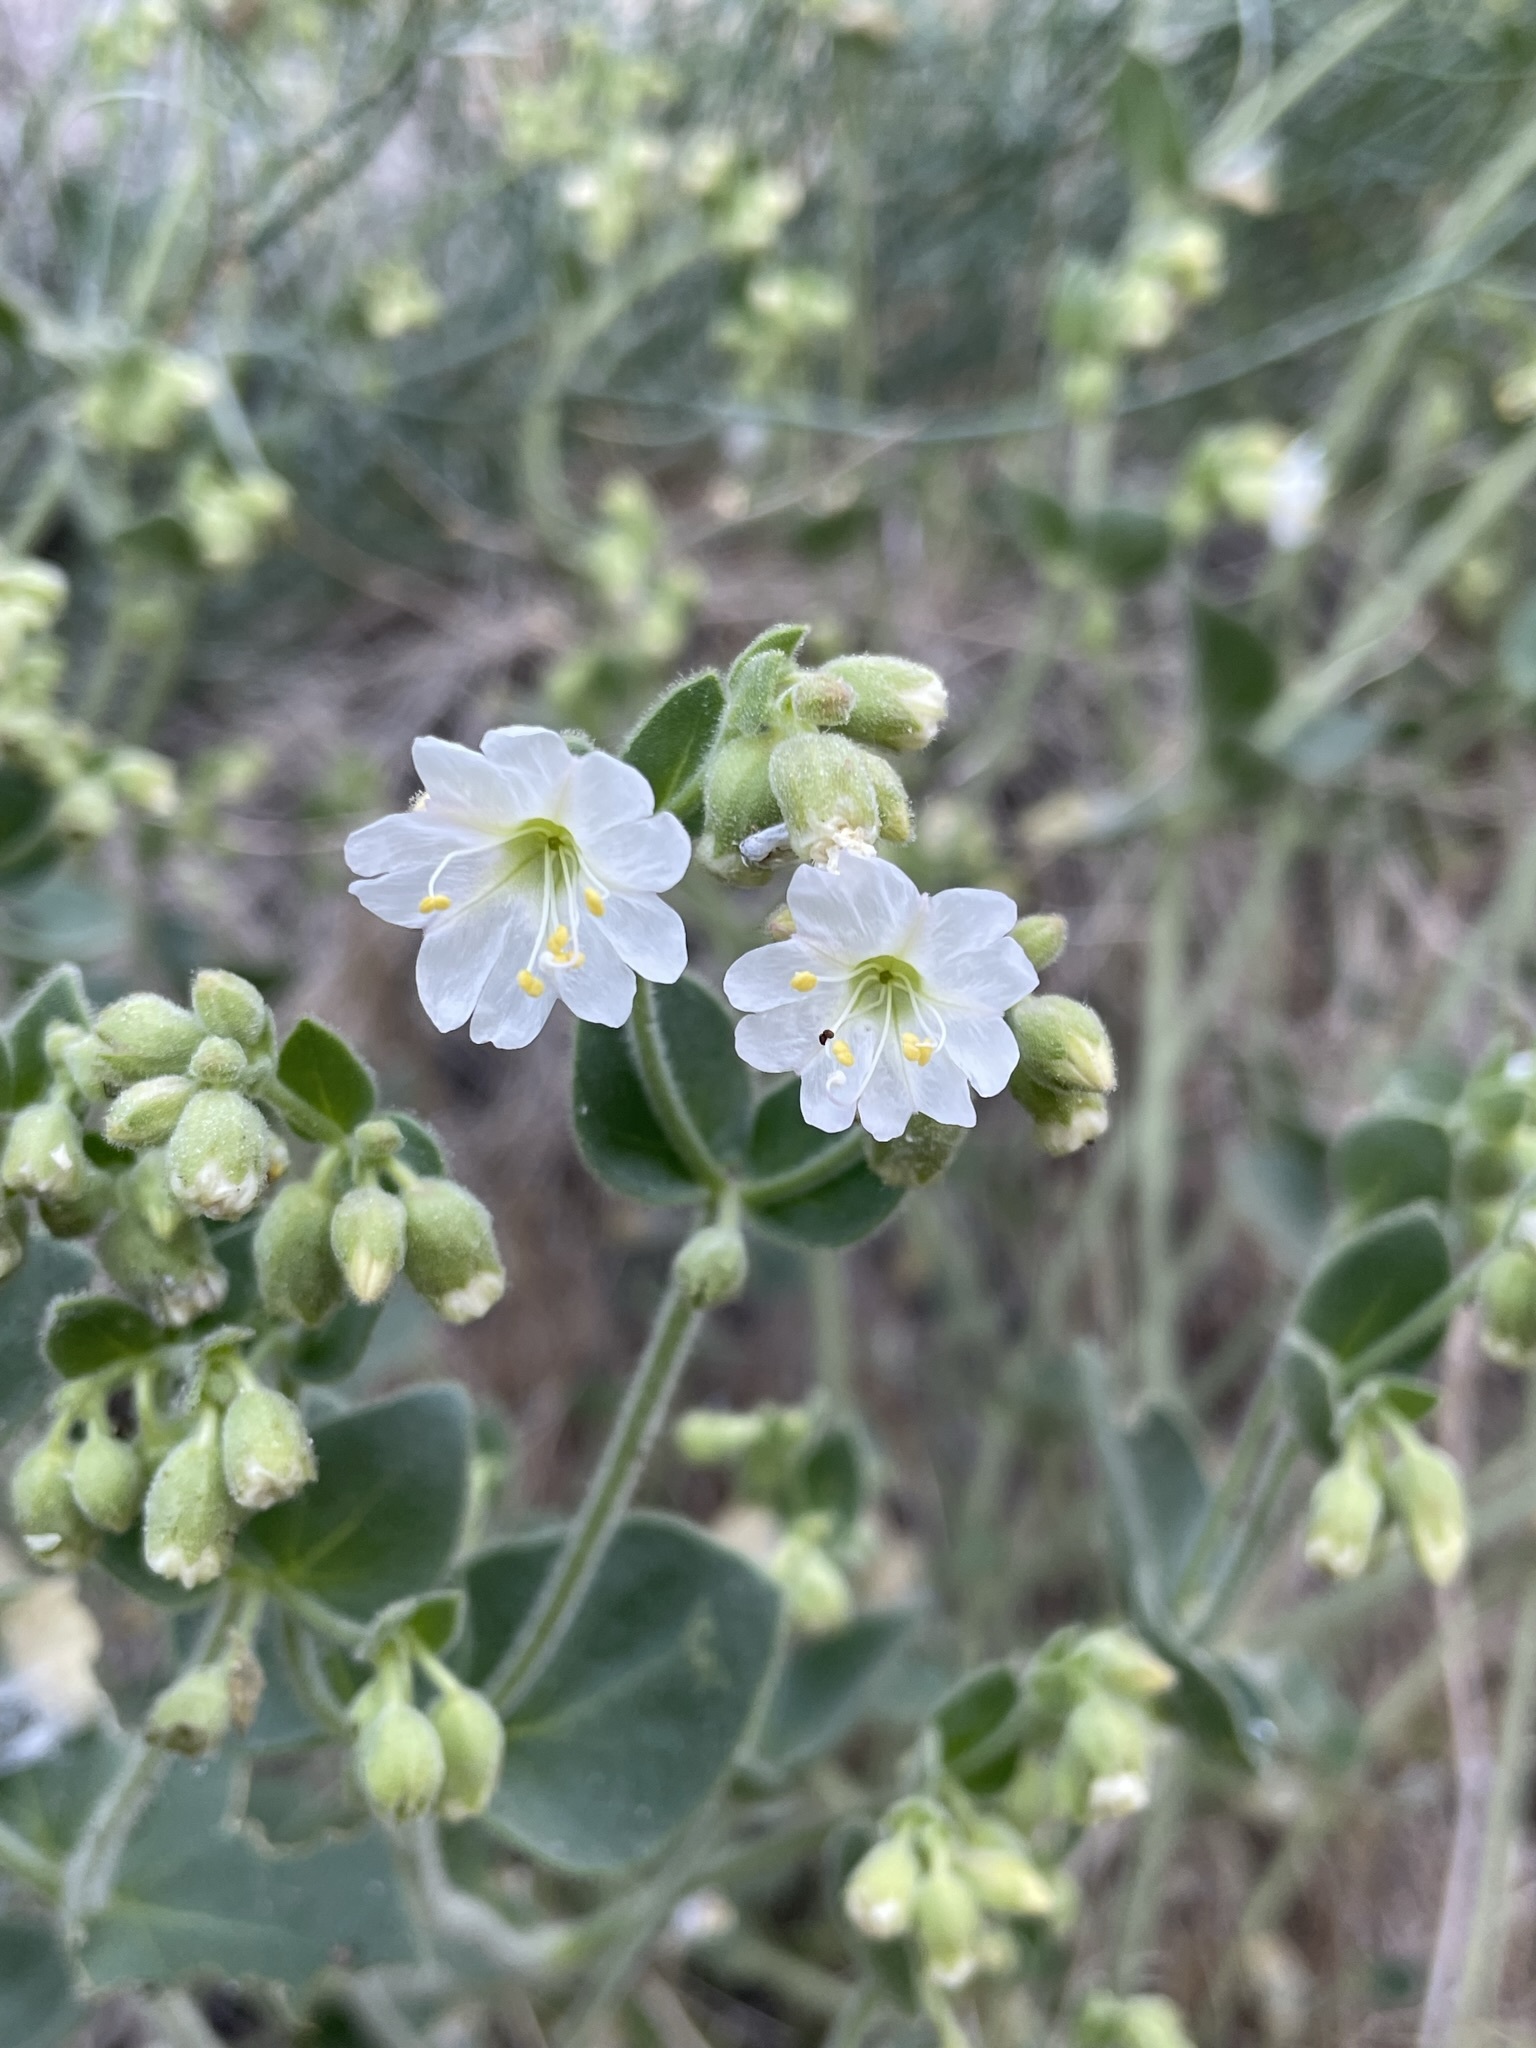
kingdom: Plantae
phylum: Tracheophyta
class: Magnoliopsida
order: Caryophyllales
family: Nyctaginaceae
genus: Mirabilis
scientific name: Mirabilis laevis
